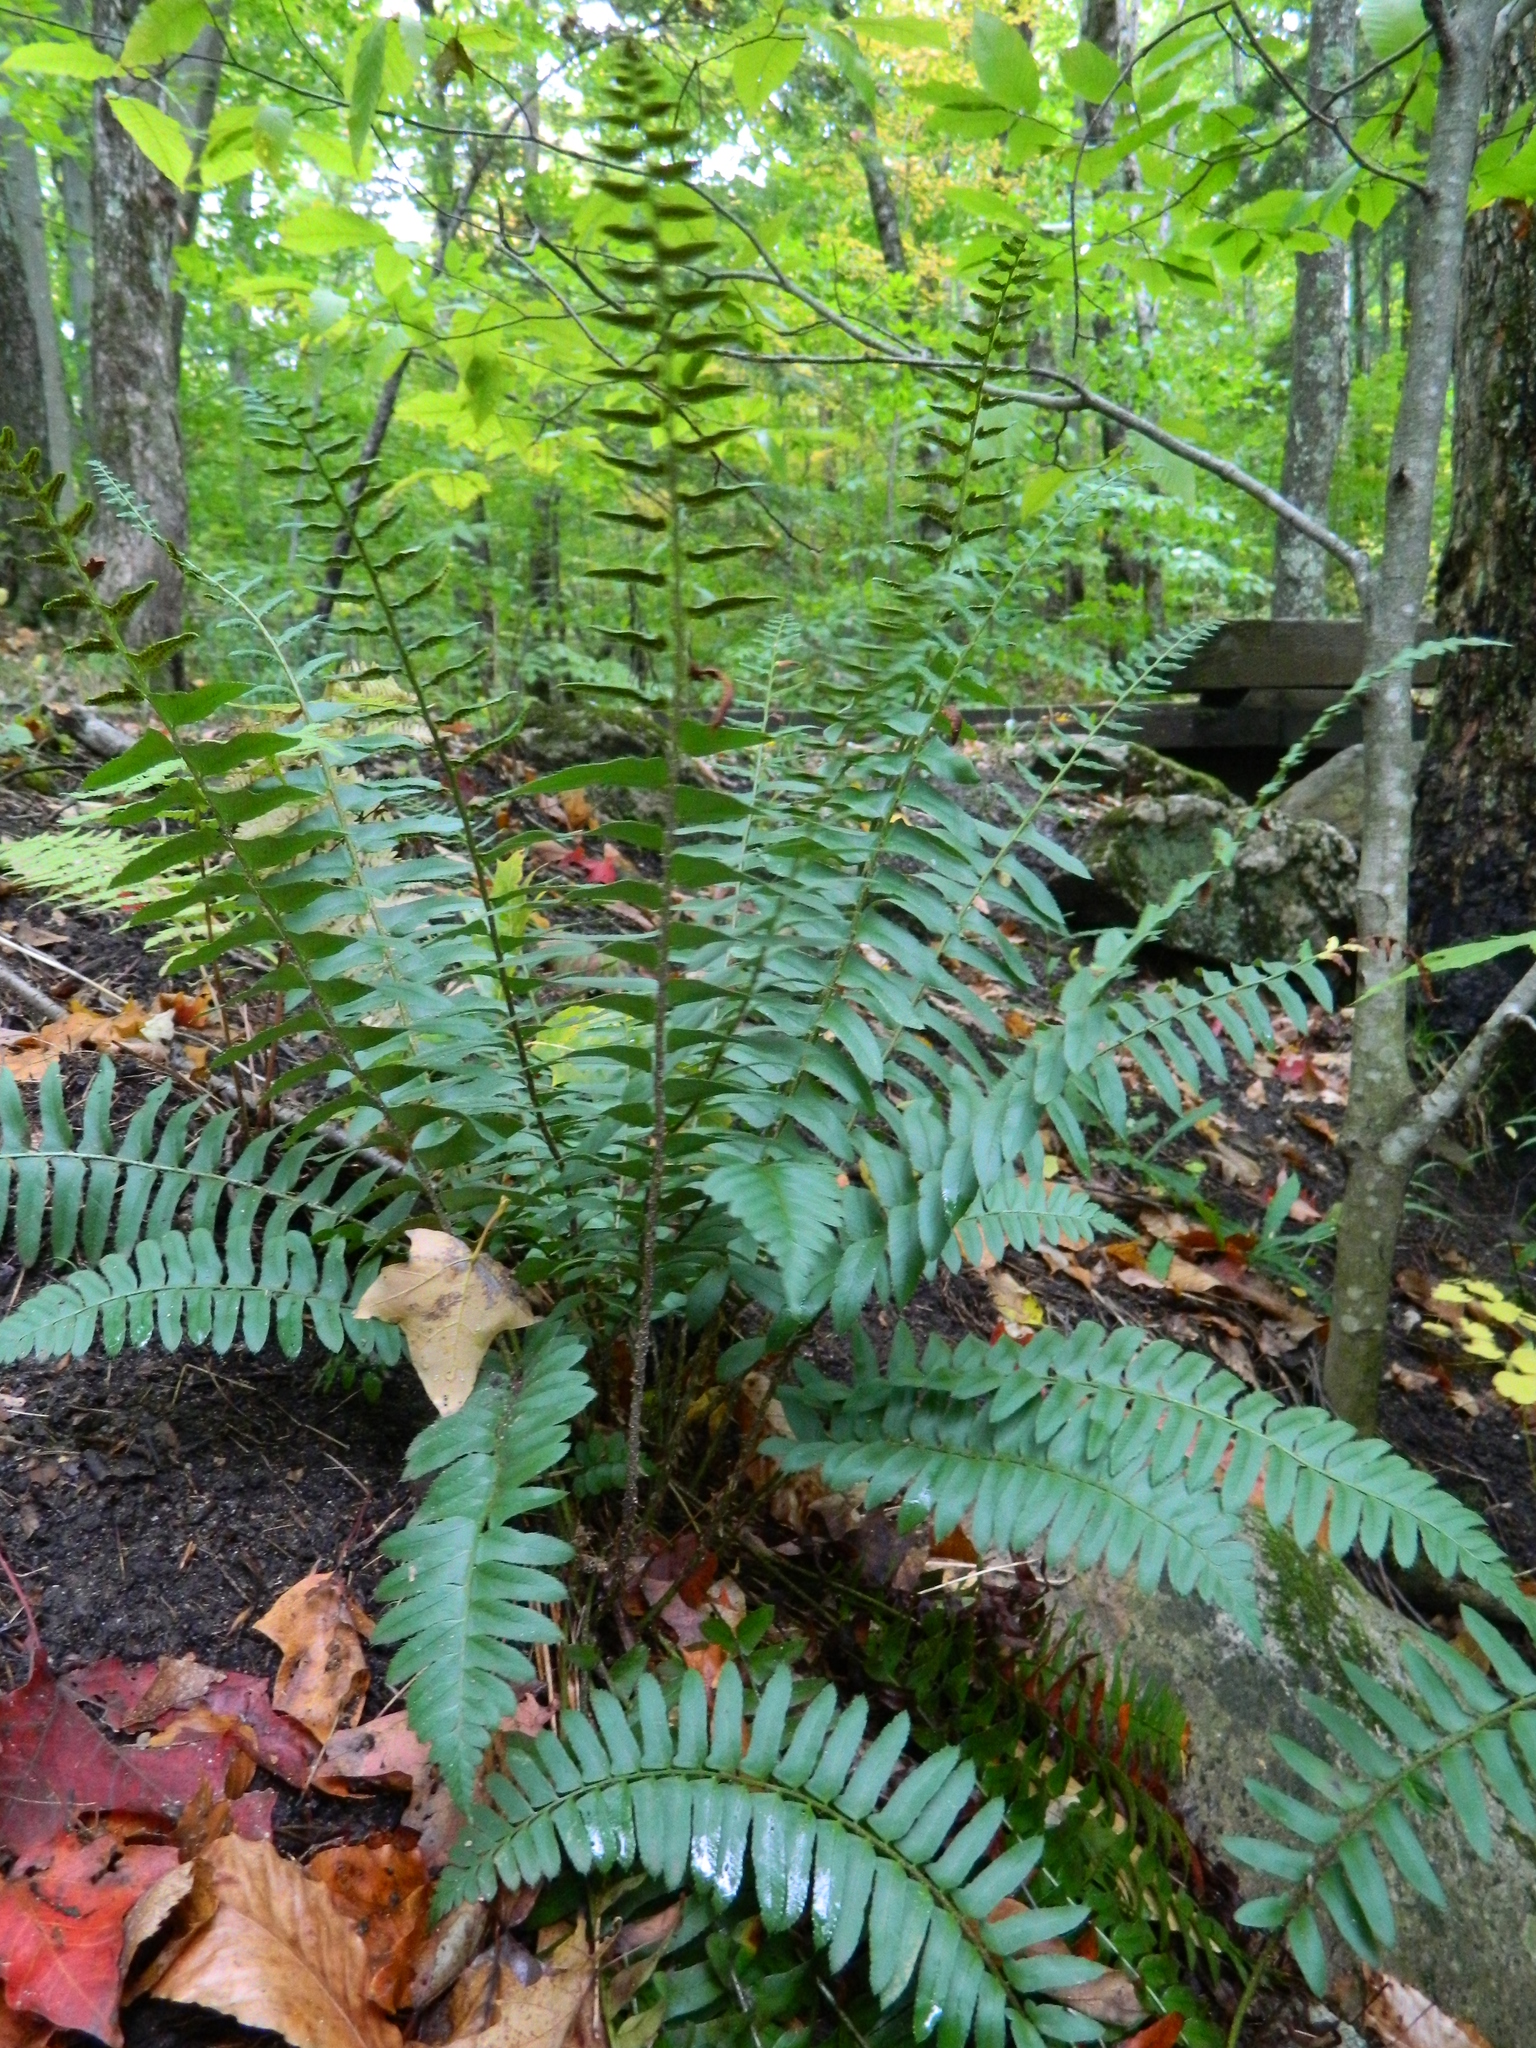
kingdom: Plantae
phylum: Tracheophyta
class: Polypodiopsida
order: Polypodiales
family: Dryopteridaceae
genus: Polystichum
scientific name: Polystichum acrostichoides
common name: Christmas fern
